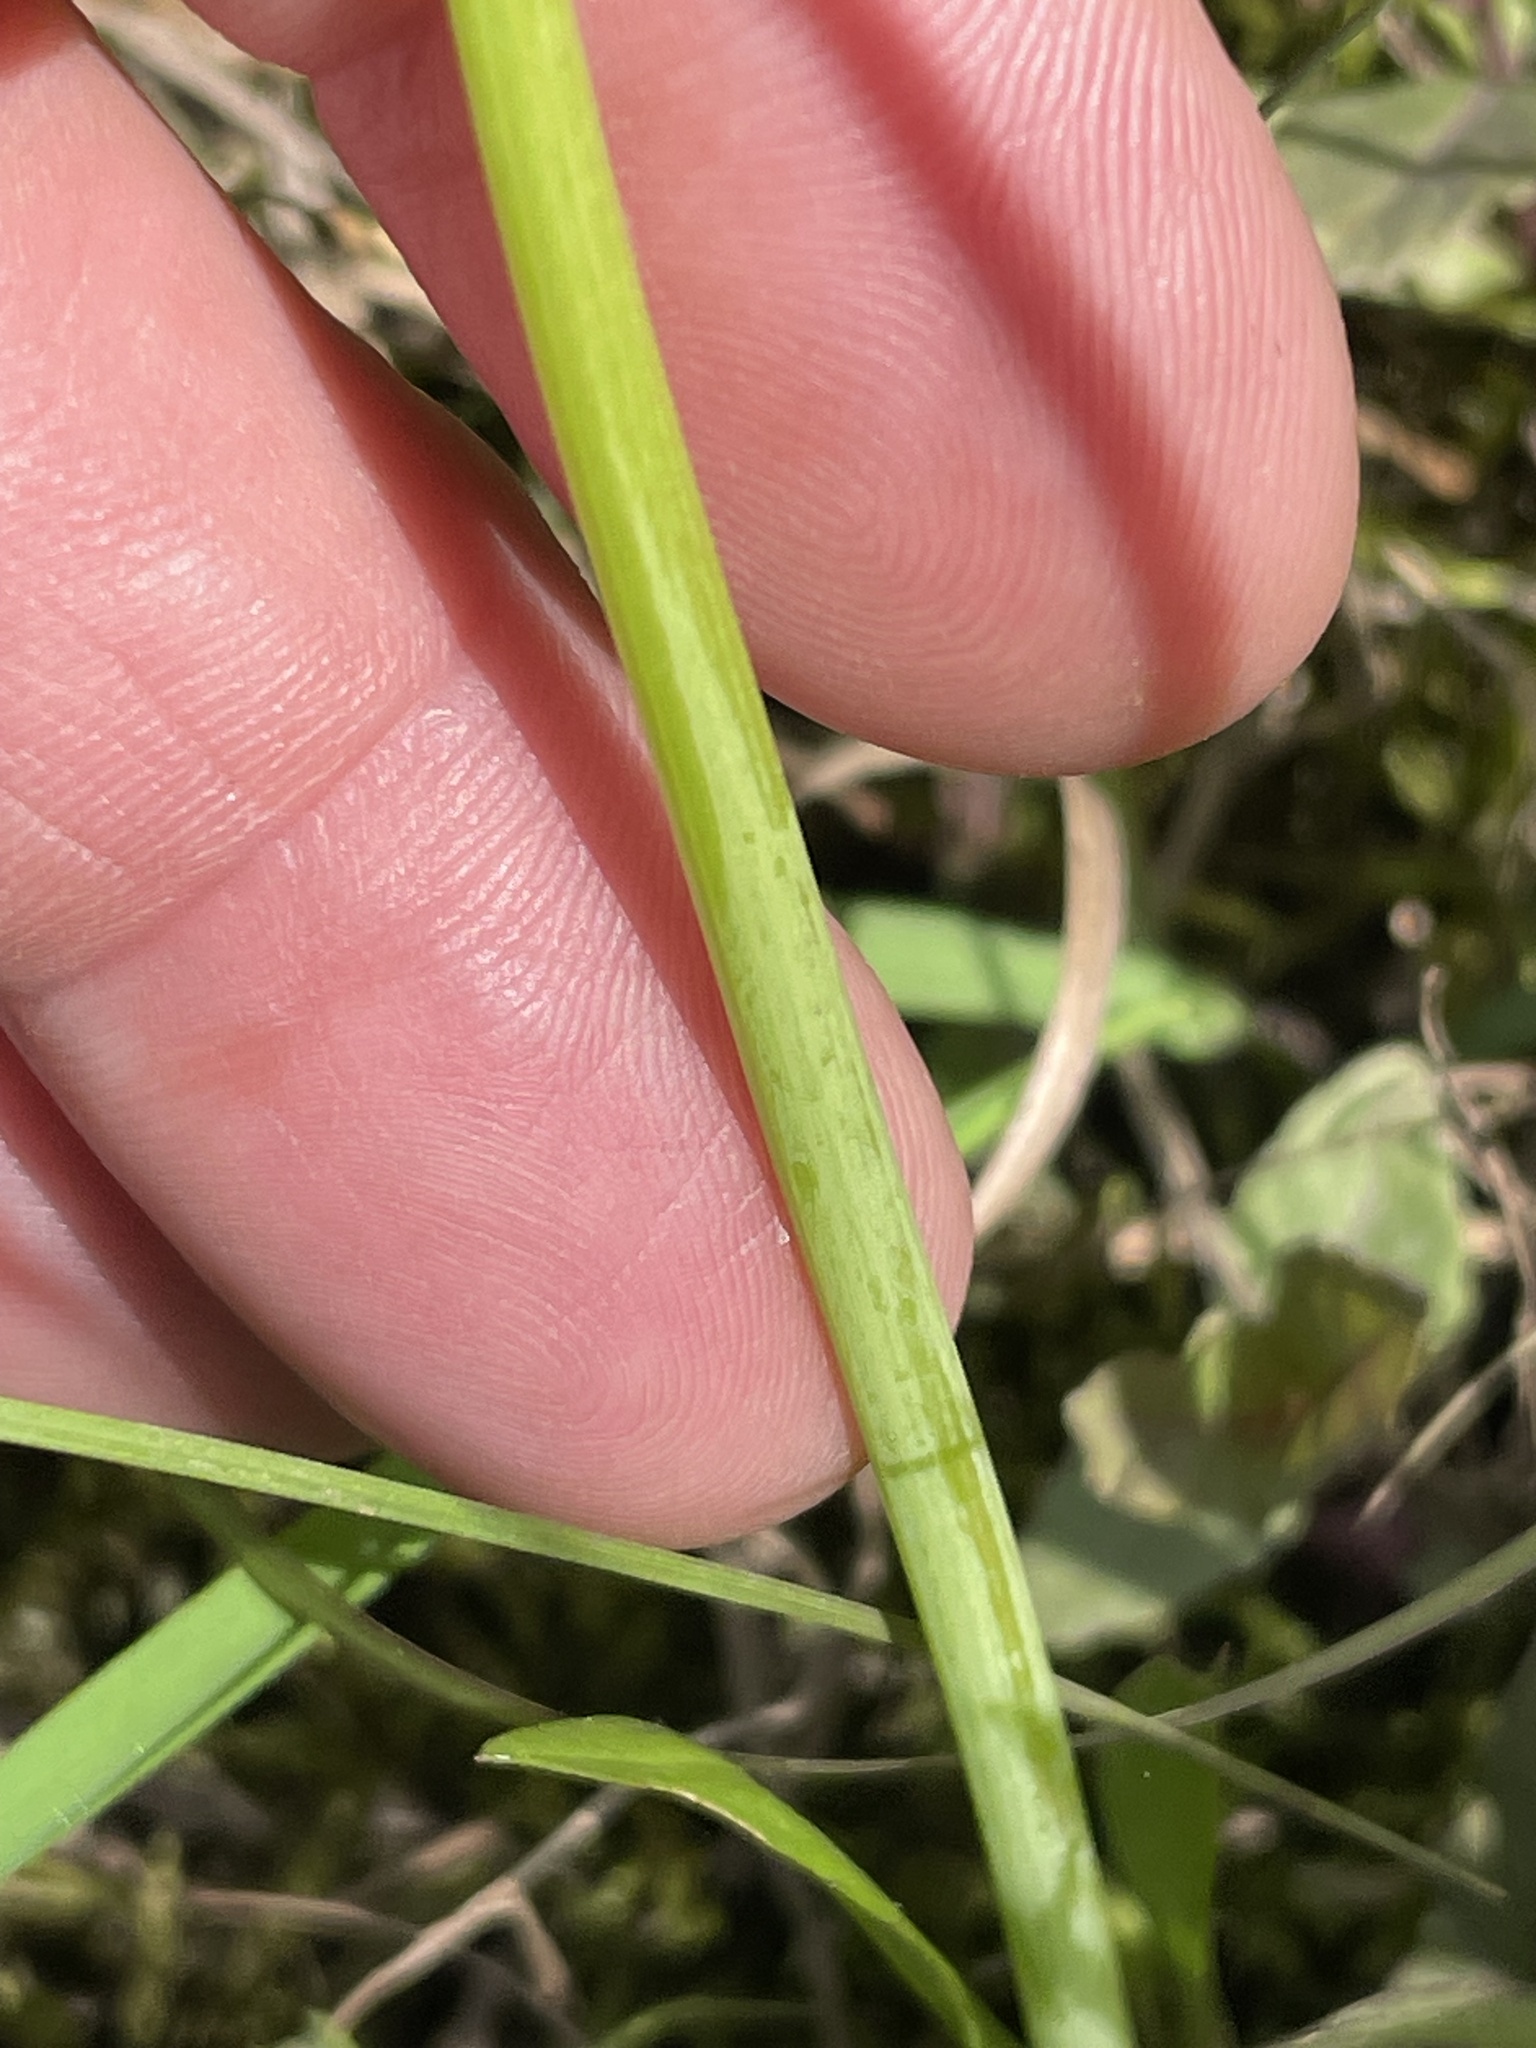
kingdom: Plantae
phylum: Tracheophyta
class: Magnoliopsida
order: Apiales
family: Apiaceae
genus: Cicuta
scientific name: Cicuta maculata
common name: Spotted cowbane
